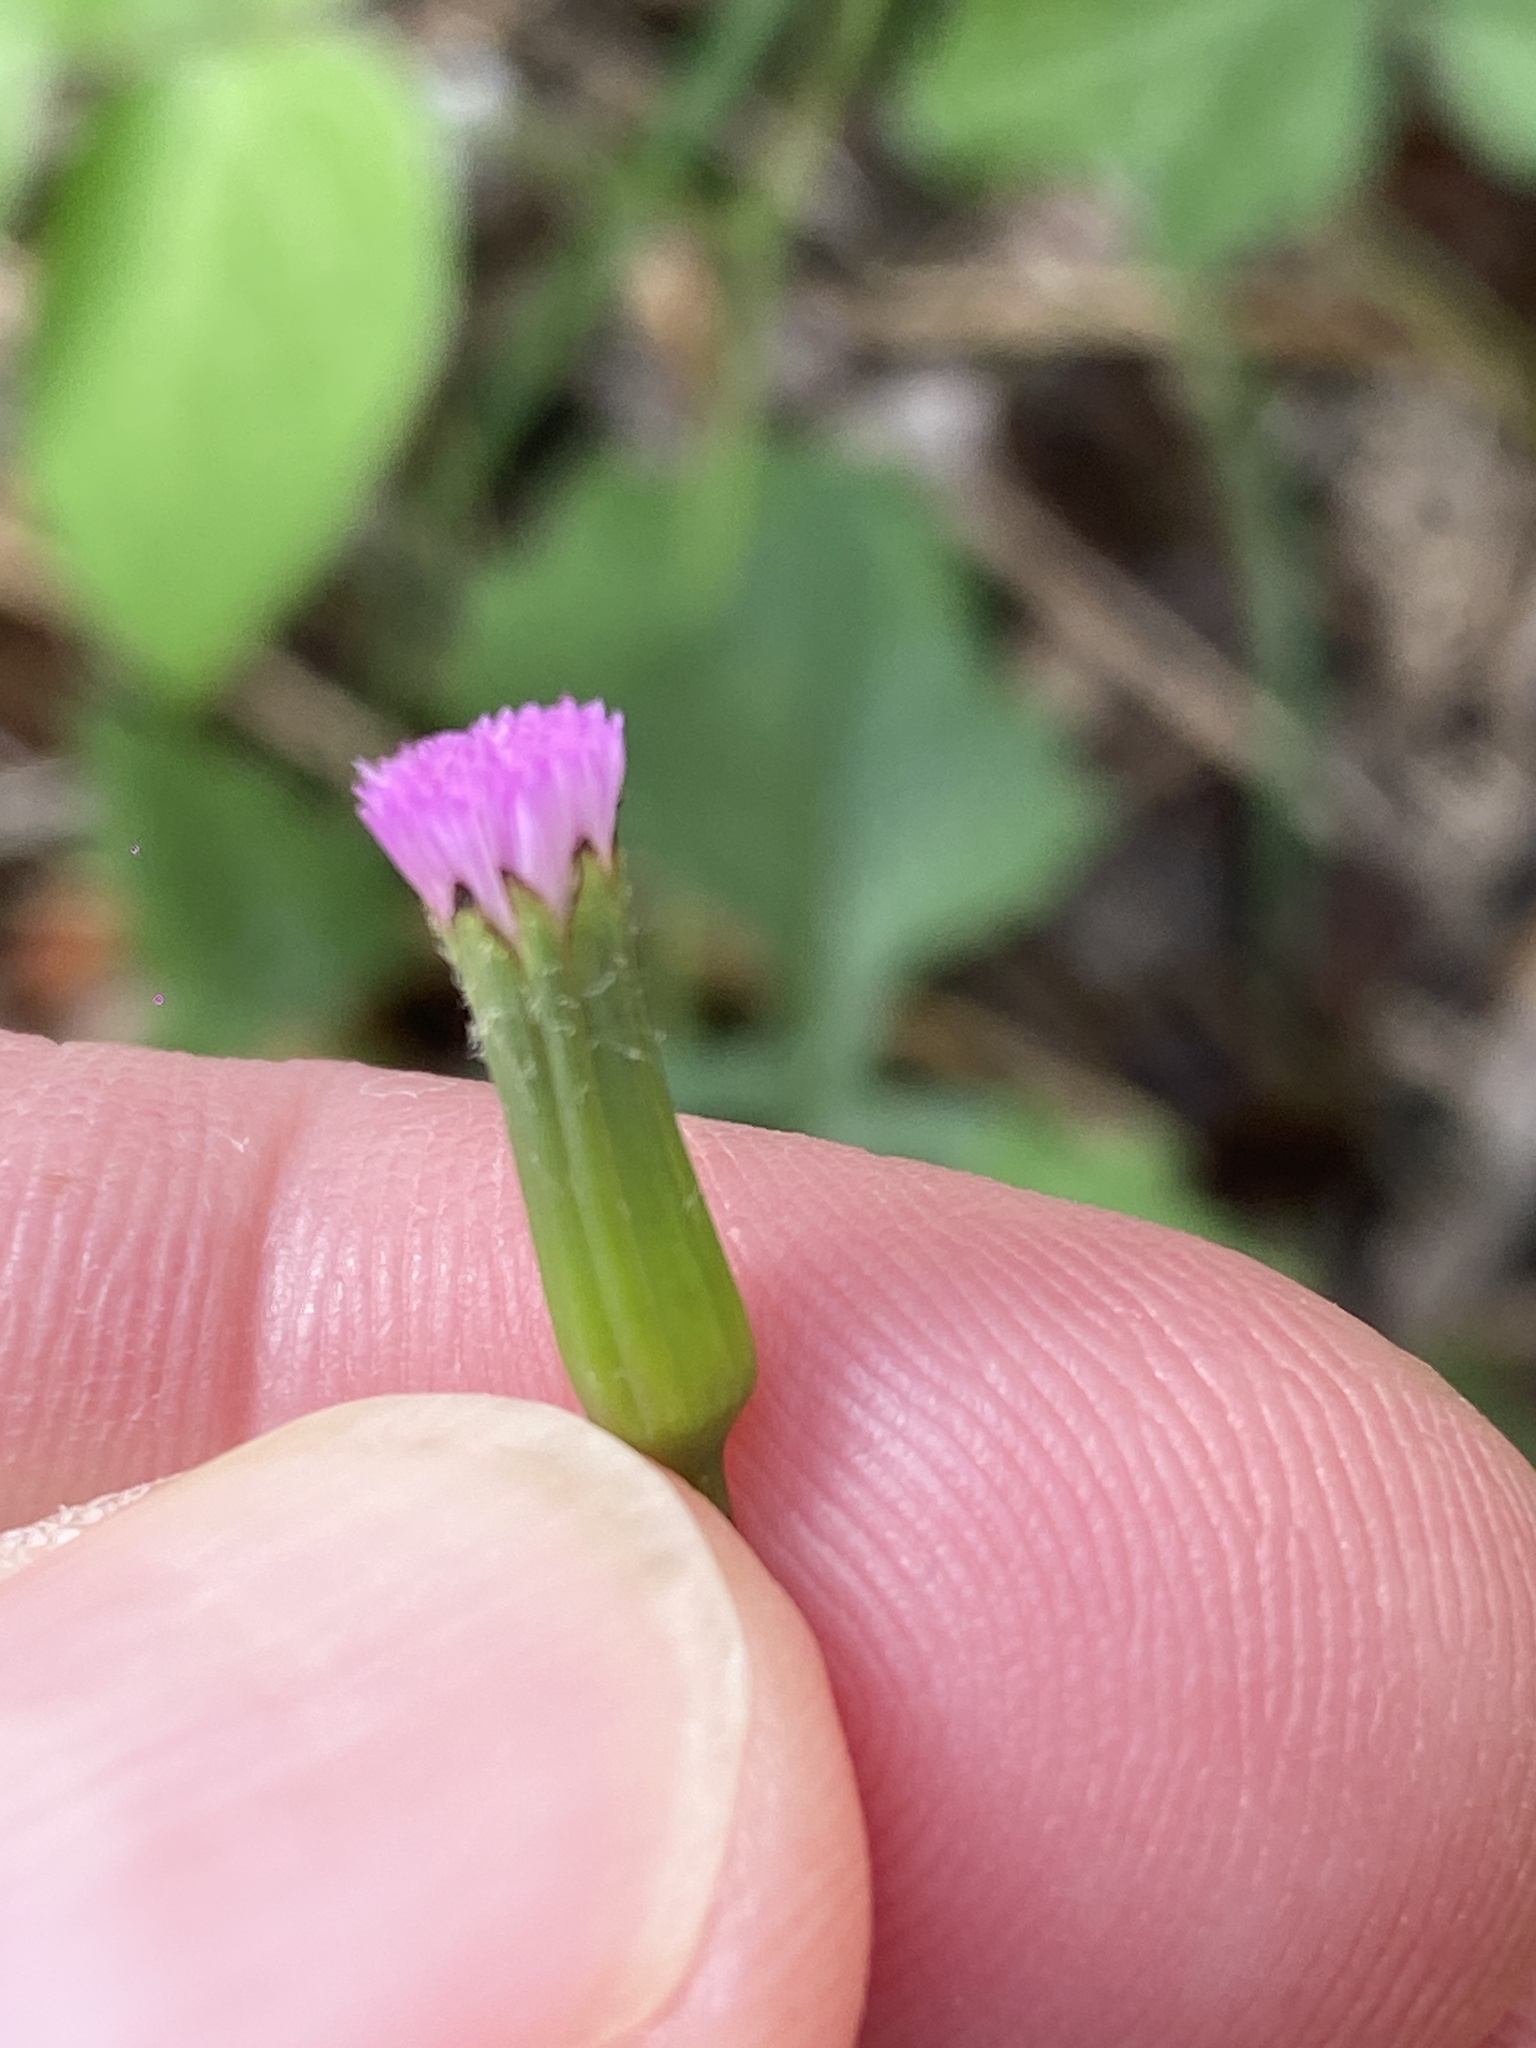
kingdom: Plantae
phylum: Tracheophyta
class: Magnoliopsida
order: Asterales
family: Asteraceae
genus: Emilia
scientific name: Emilia javanica
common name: Tassel-flower
